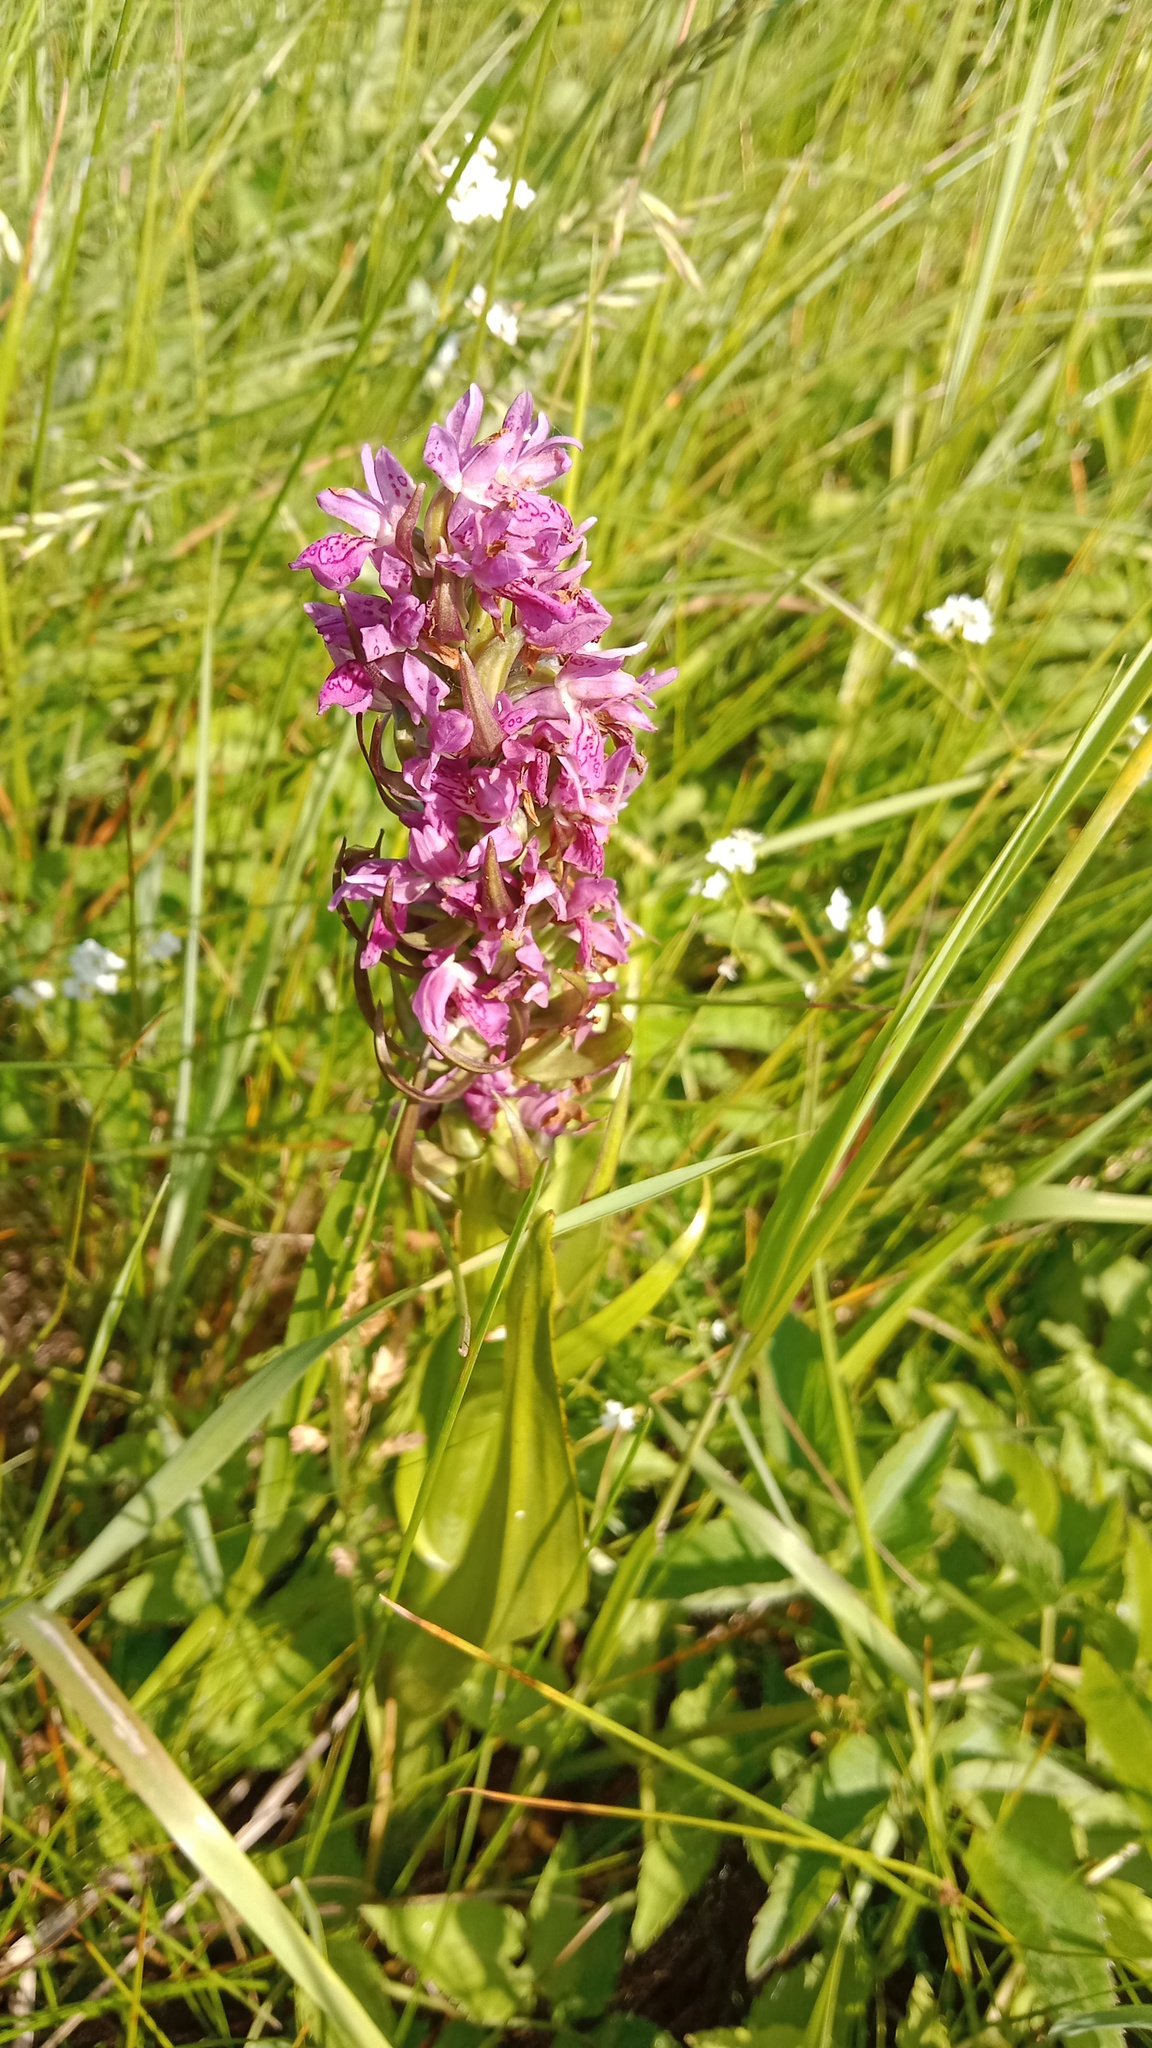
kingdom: Plantae
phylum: Tracheophyta
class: Liliopsida
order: Asparagales
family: Orchidaceae
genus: Dactylorhiza
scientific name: Dactylorhiza incarnata
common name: Early marsh-orchid
